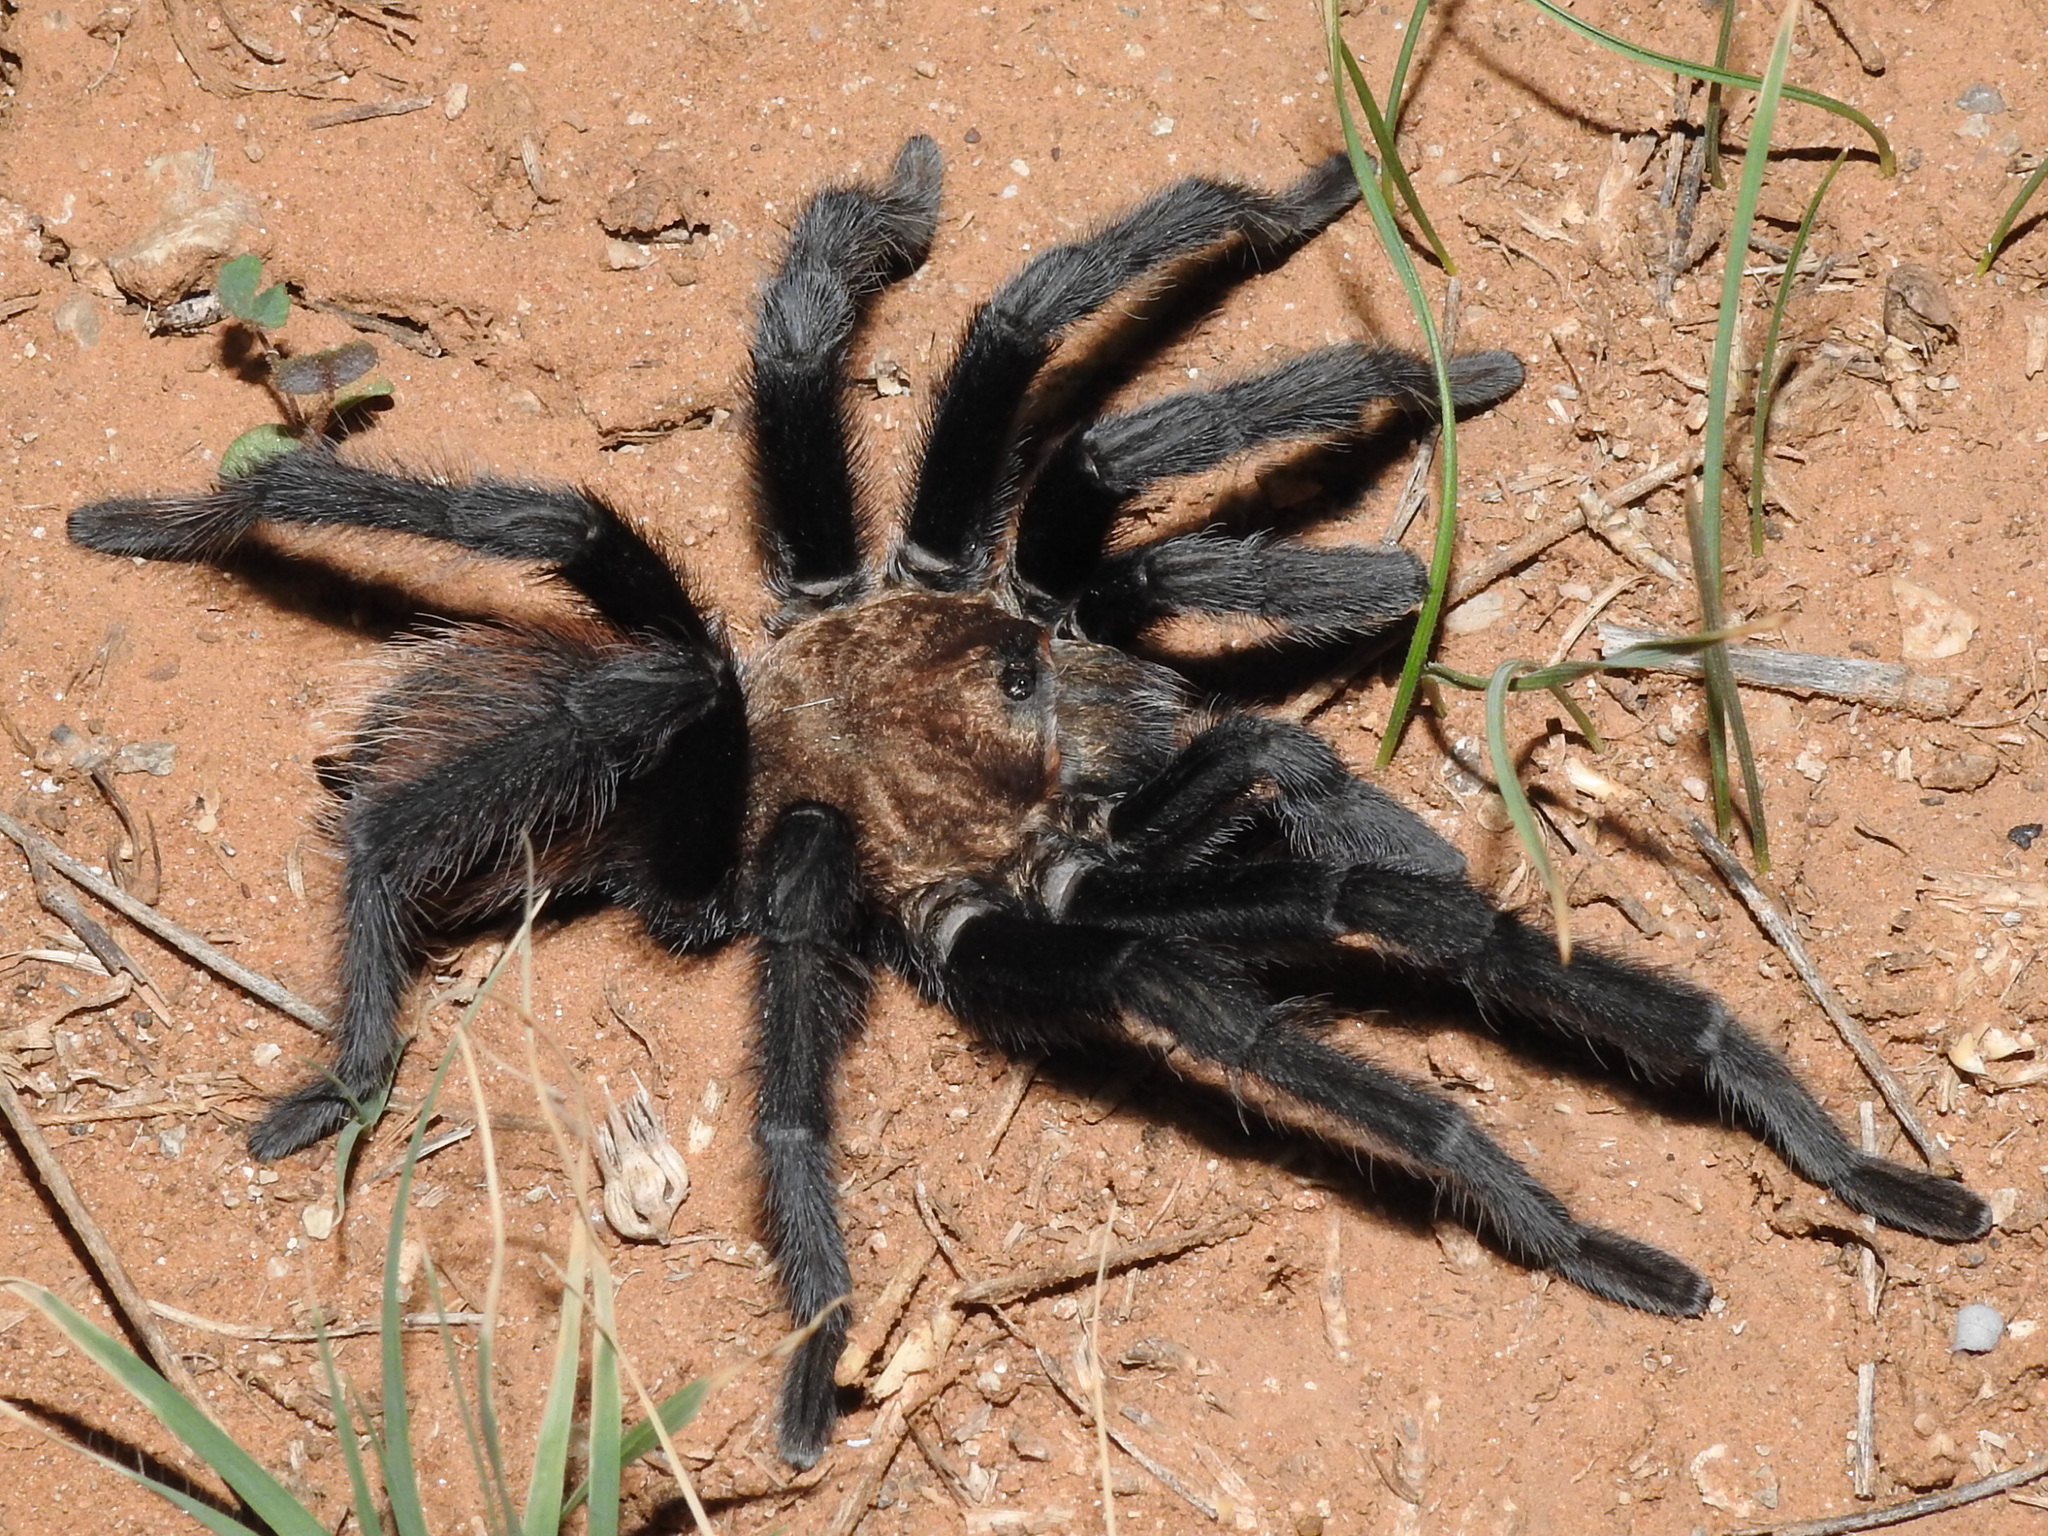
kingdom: Animalia
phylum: Arthropoda
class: Arachnida
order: Araneae
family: Theraphosidae
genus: Aphonopelma
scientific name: Aphonopelma hentzi
